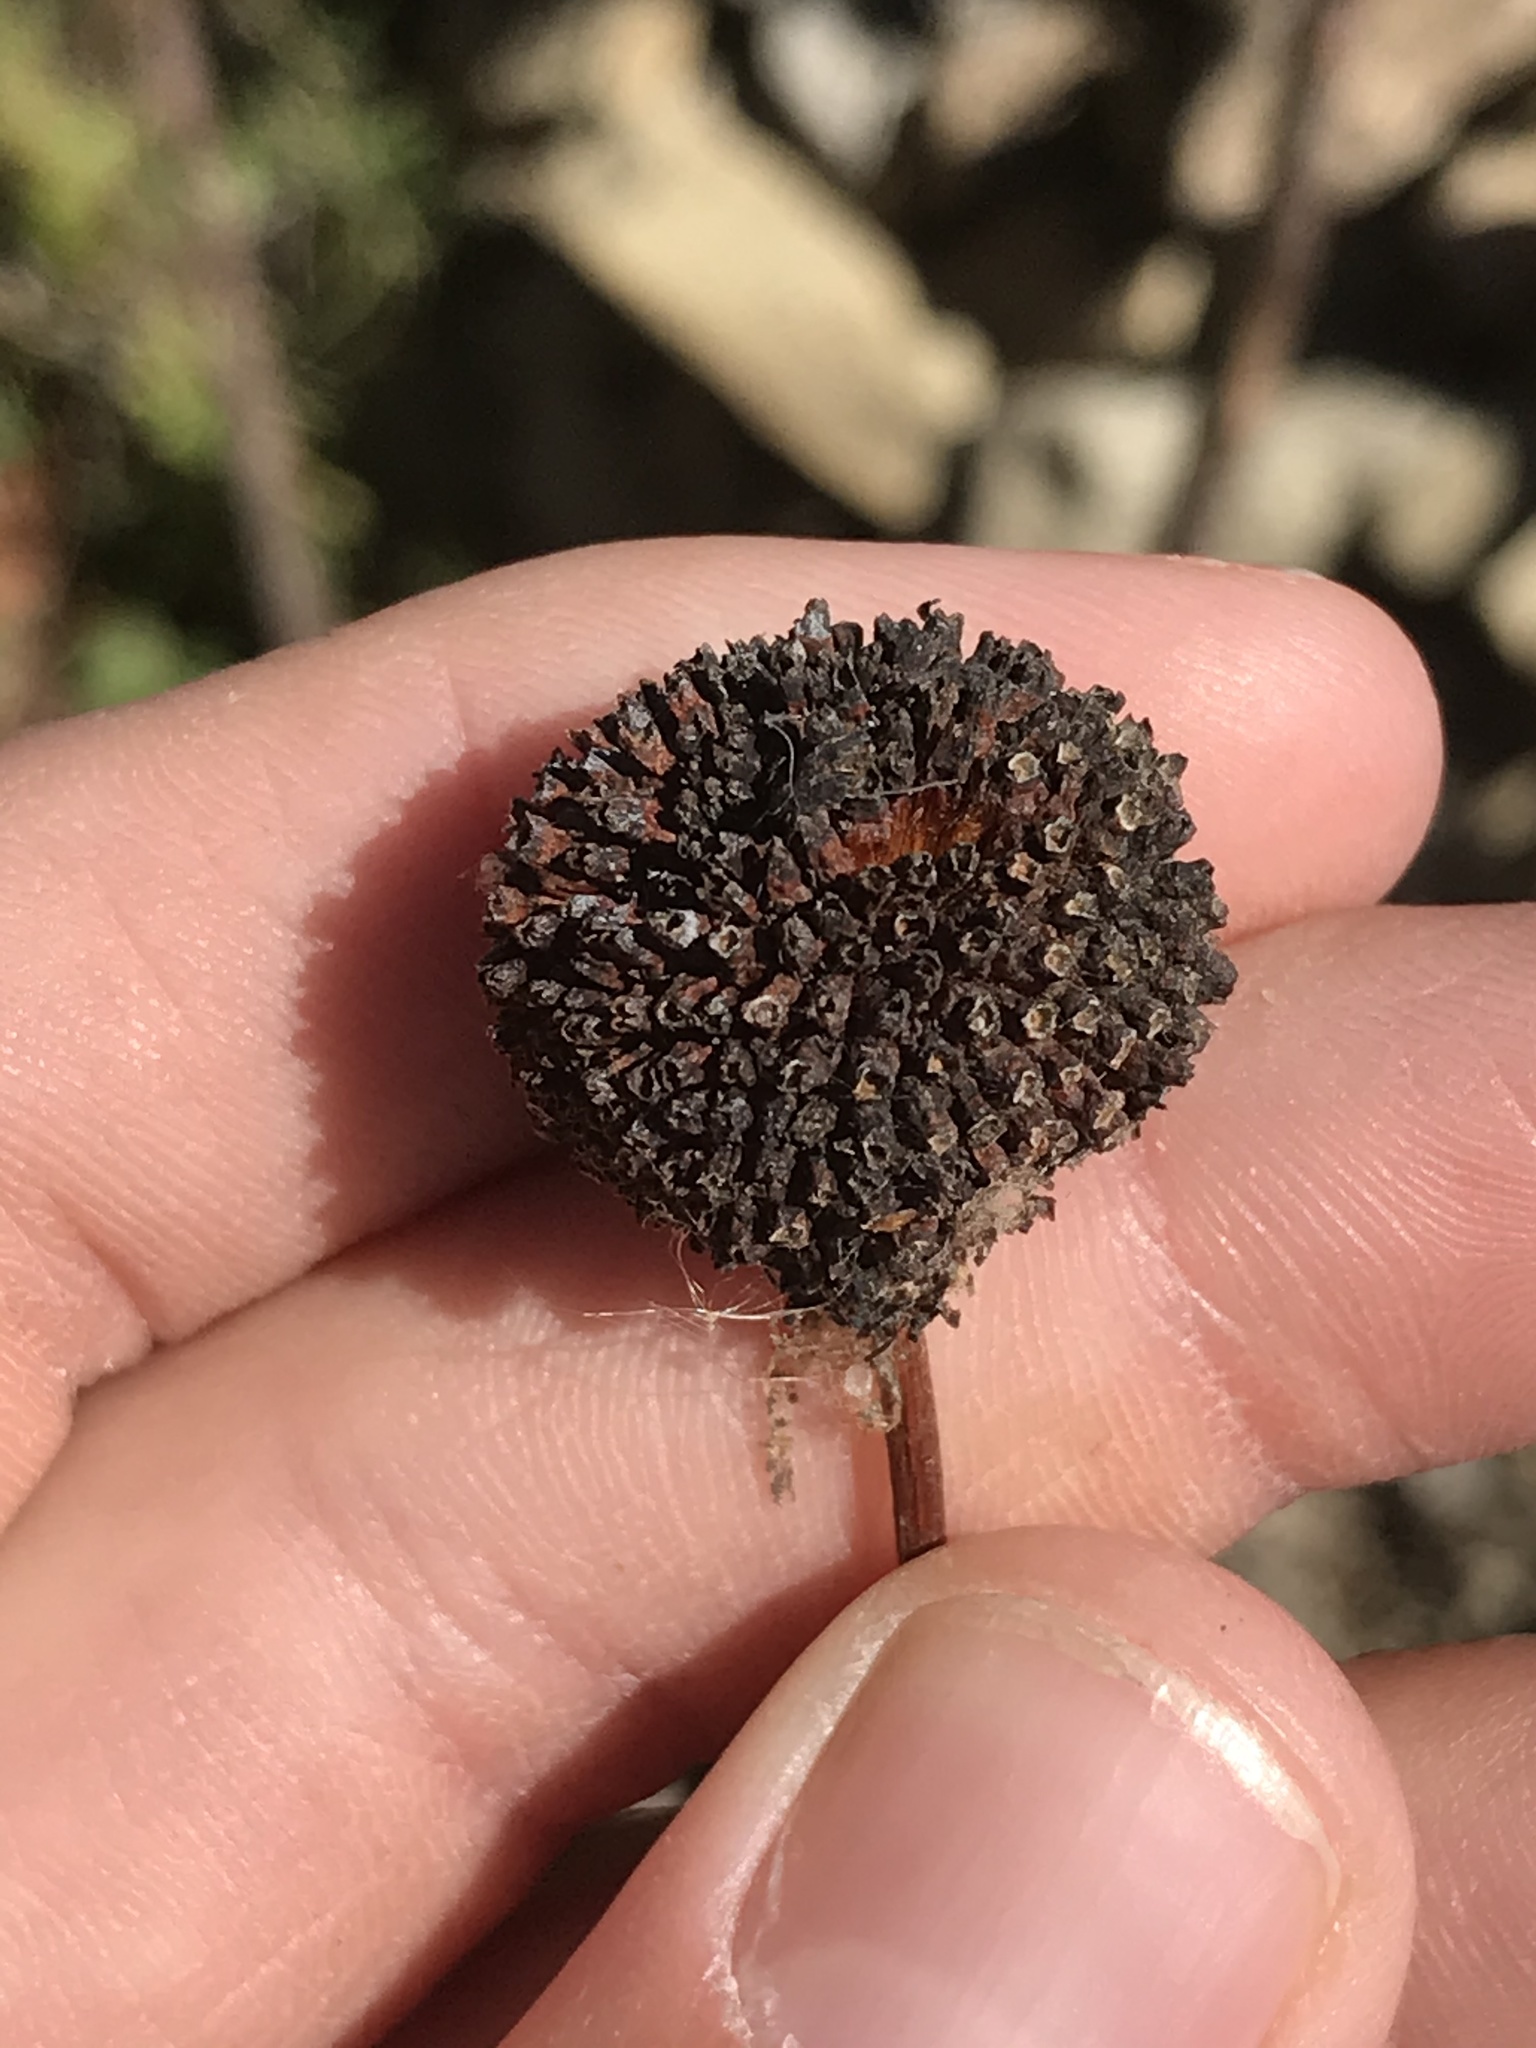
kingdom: Plantae
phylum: Tracheophyta
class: Magnoliopsida
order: Gentianales
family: Rubiaceae
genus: Cephalanthus
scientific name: Cephalanthus occidentalis
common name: Button-willow
